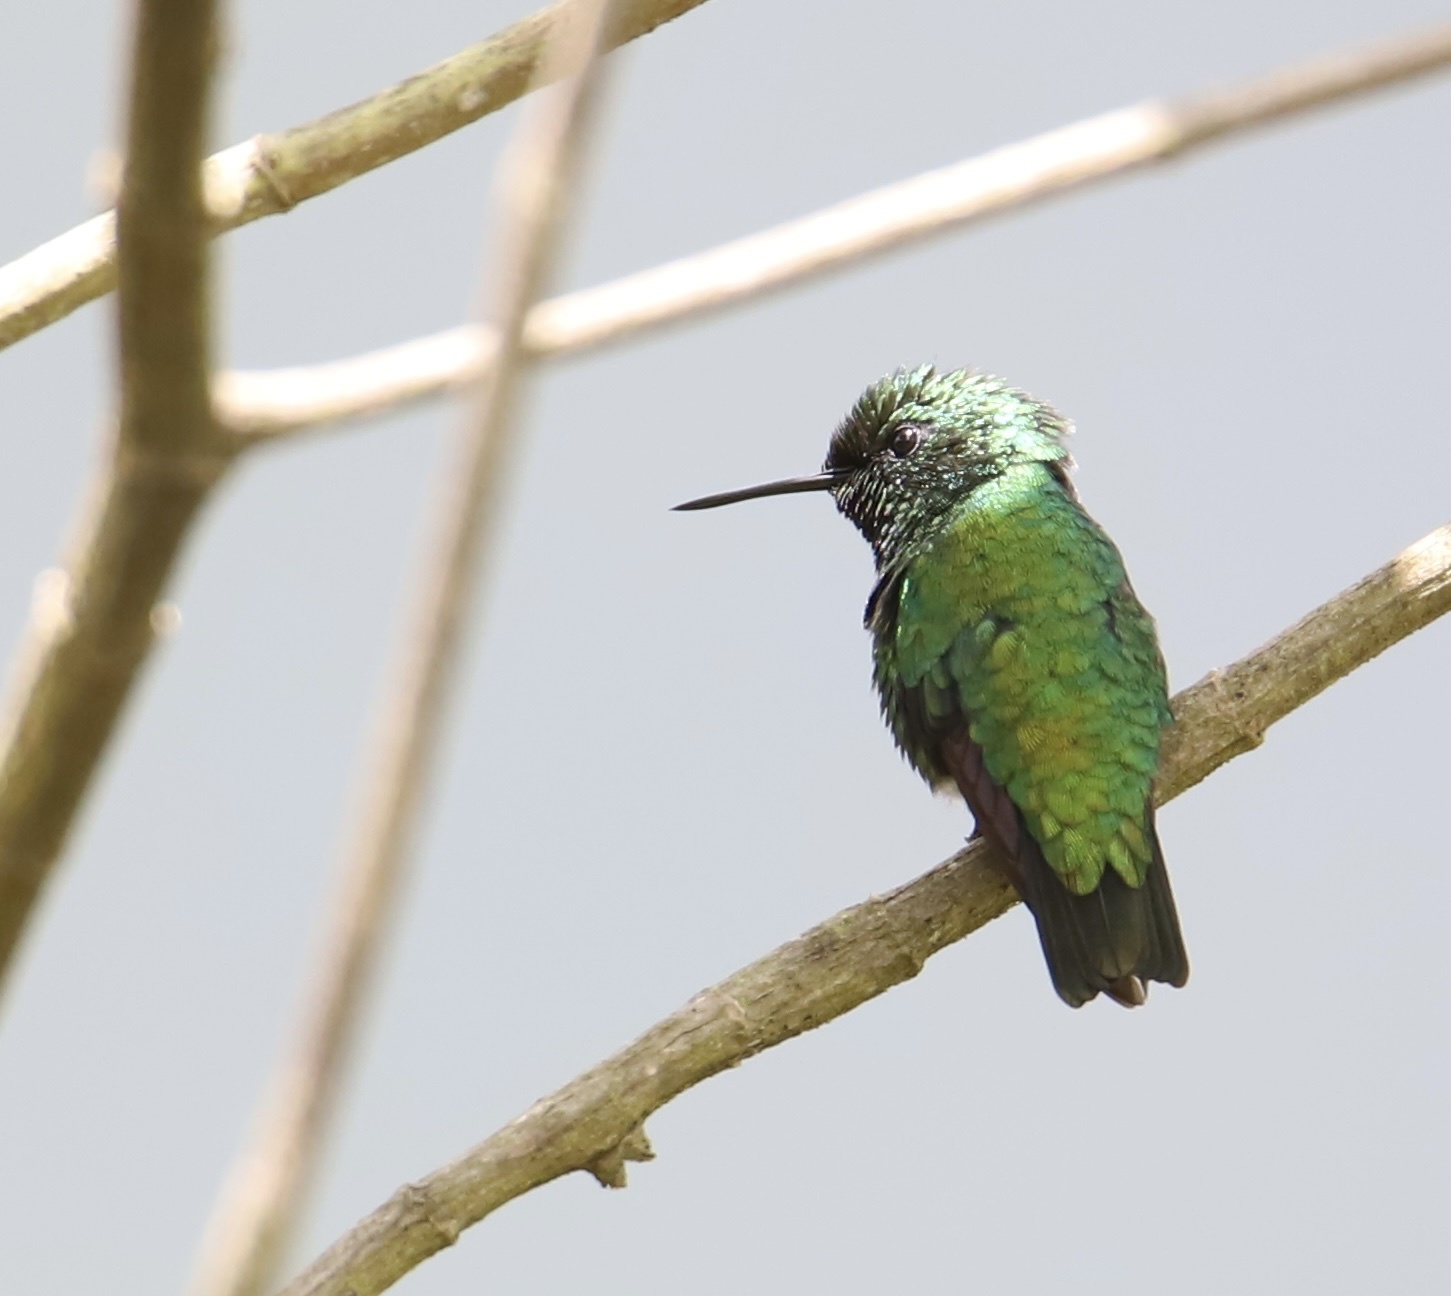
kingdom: Animalia
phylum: Chordata
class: Aves
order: Apodiformes
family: Trochilidae
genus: Chlorostilbon
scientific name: Chlorostilbon alice
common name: Green-tailed emerald
